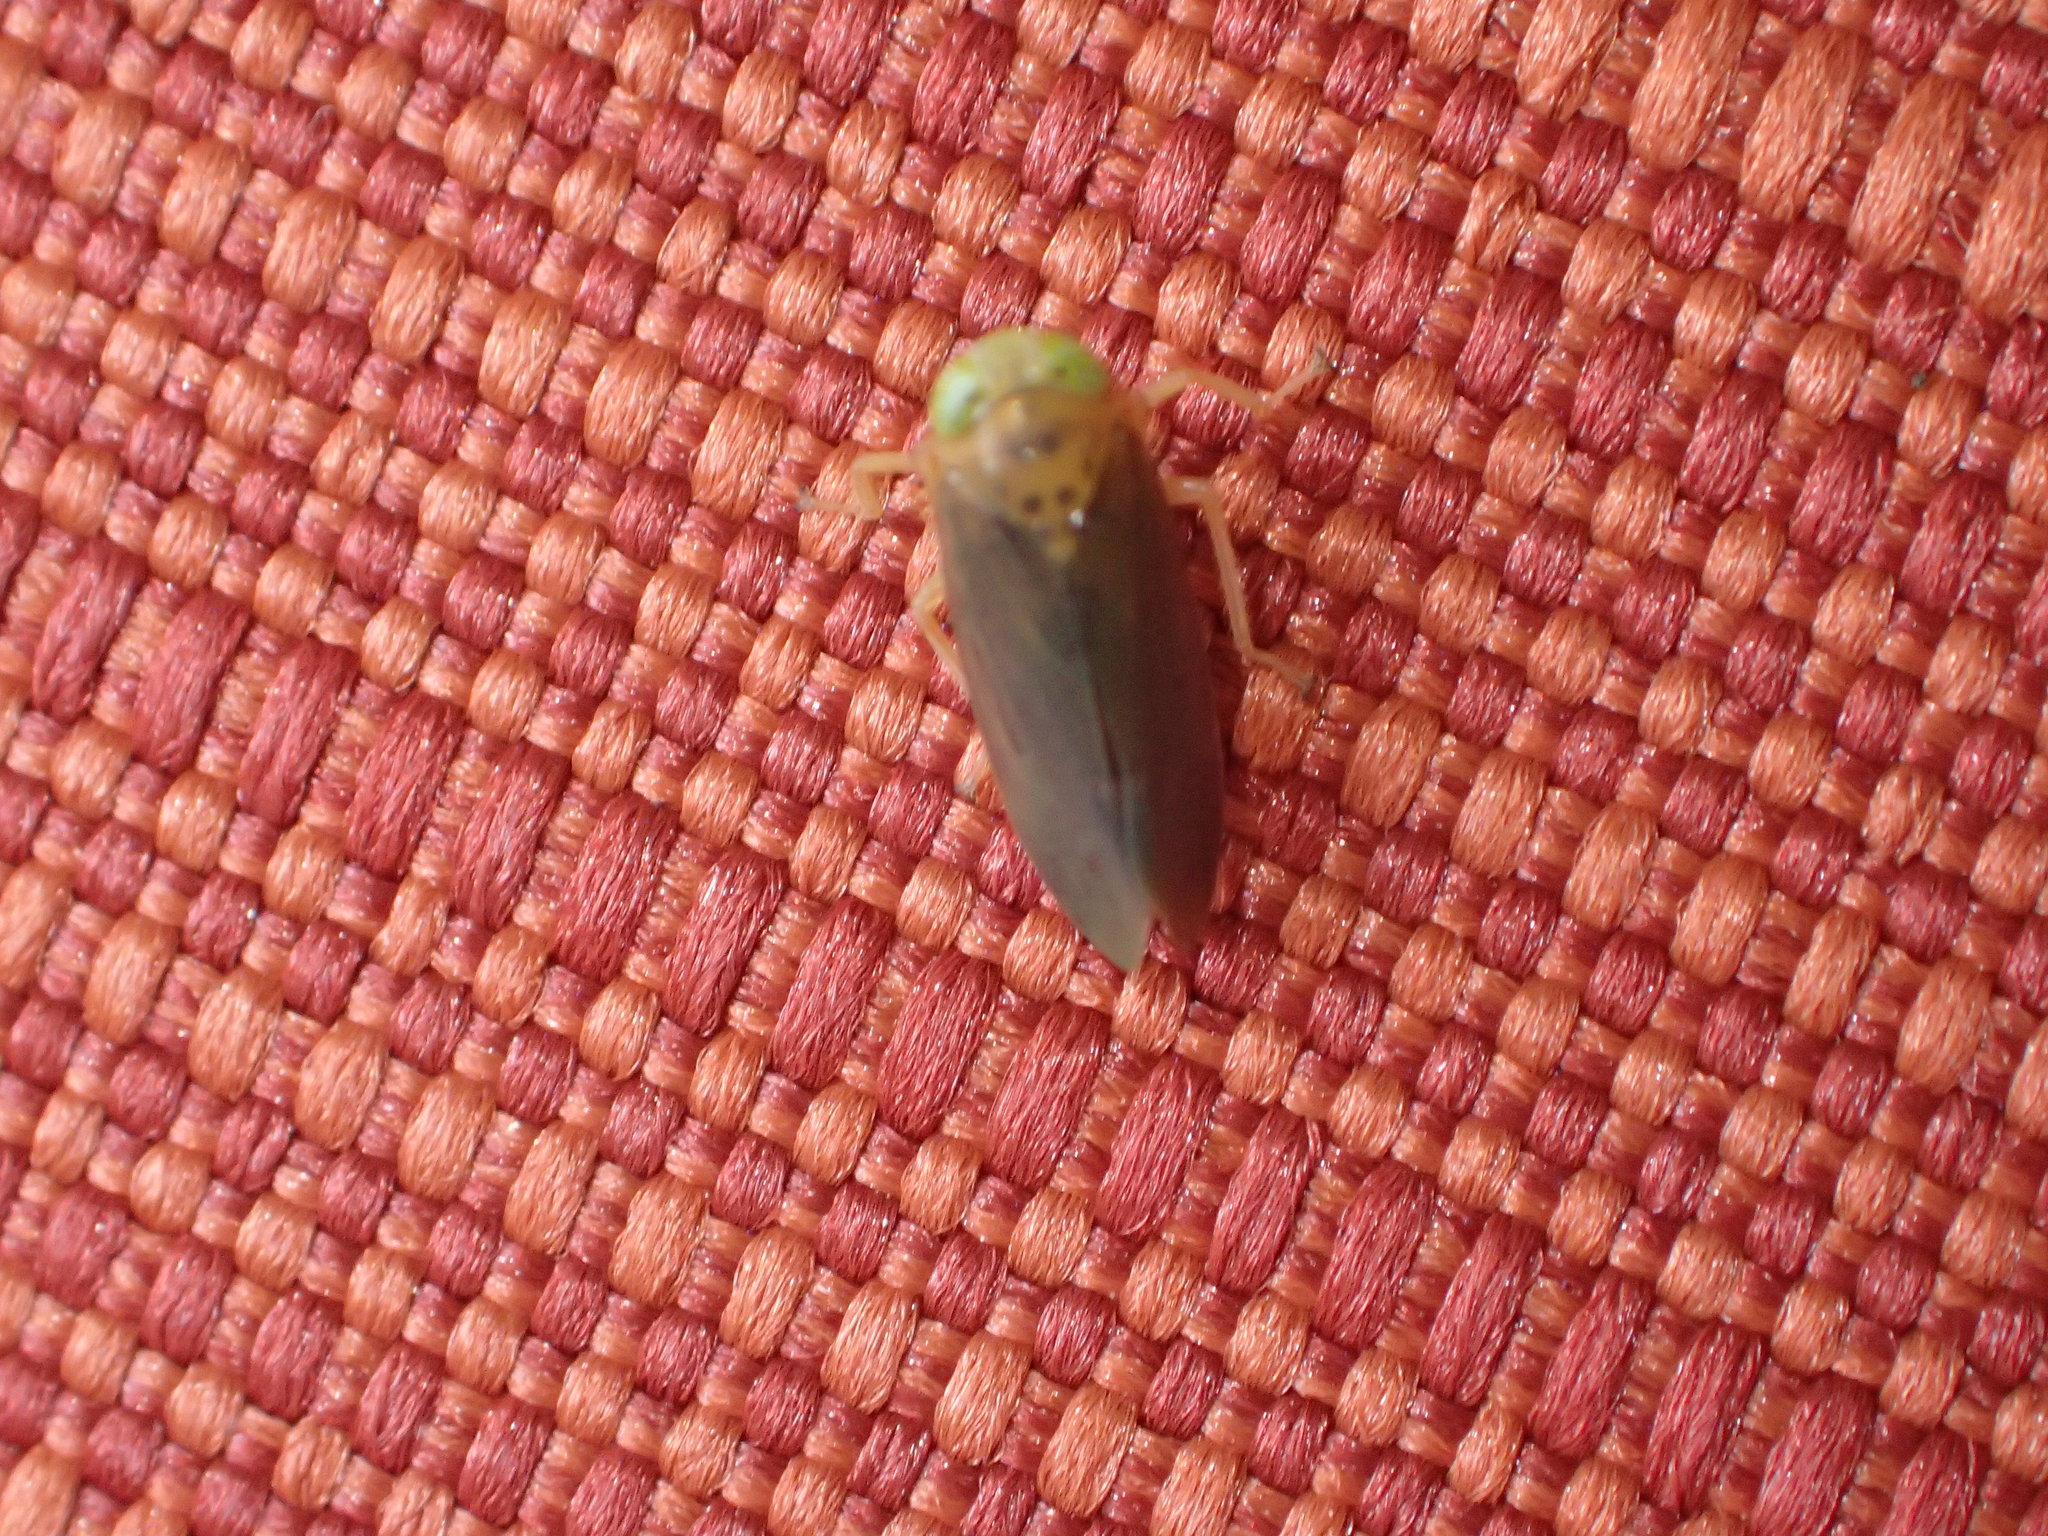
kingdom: Animalia
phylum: Arthropoda
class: Insecta
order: Hemiptera
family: Cicadellidae
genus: Jikradia
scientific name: Jikradia olitoria
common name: Coppery leafhopper
